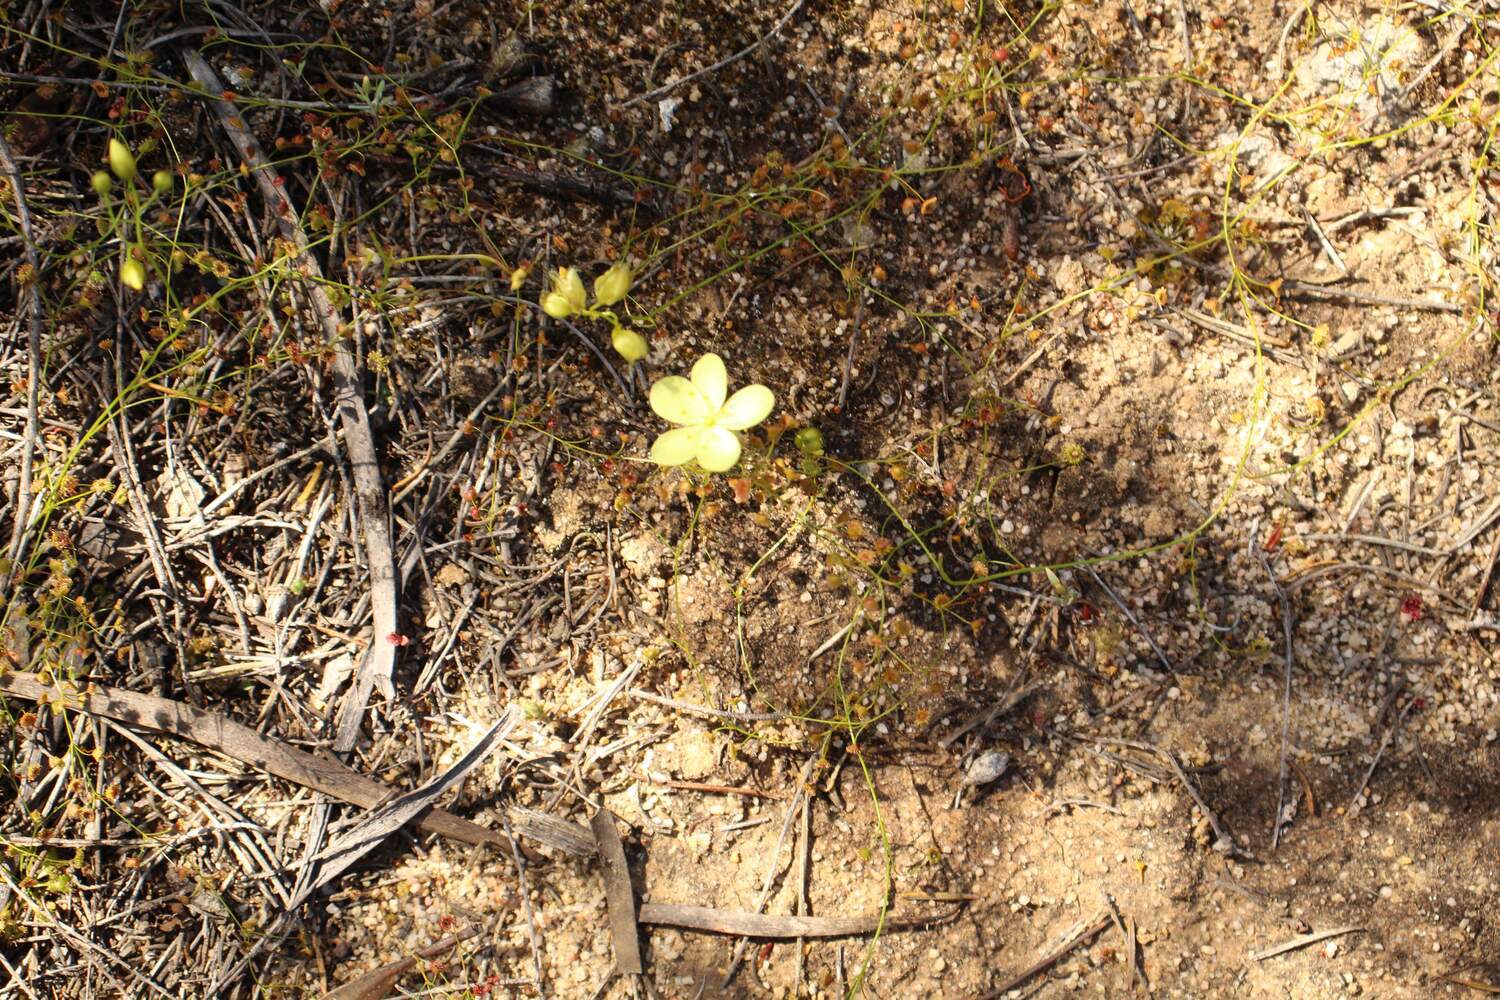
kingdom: Plantae
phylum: Tracheophyta
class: Magnoliopsida
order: Caryophyllales
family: Droseraceae
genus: Drosera
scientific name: Drosera moorei
